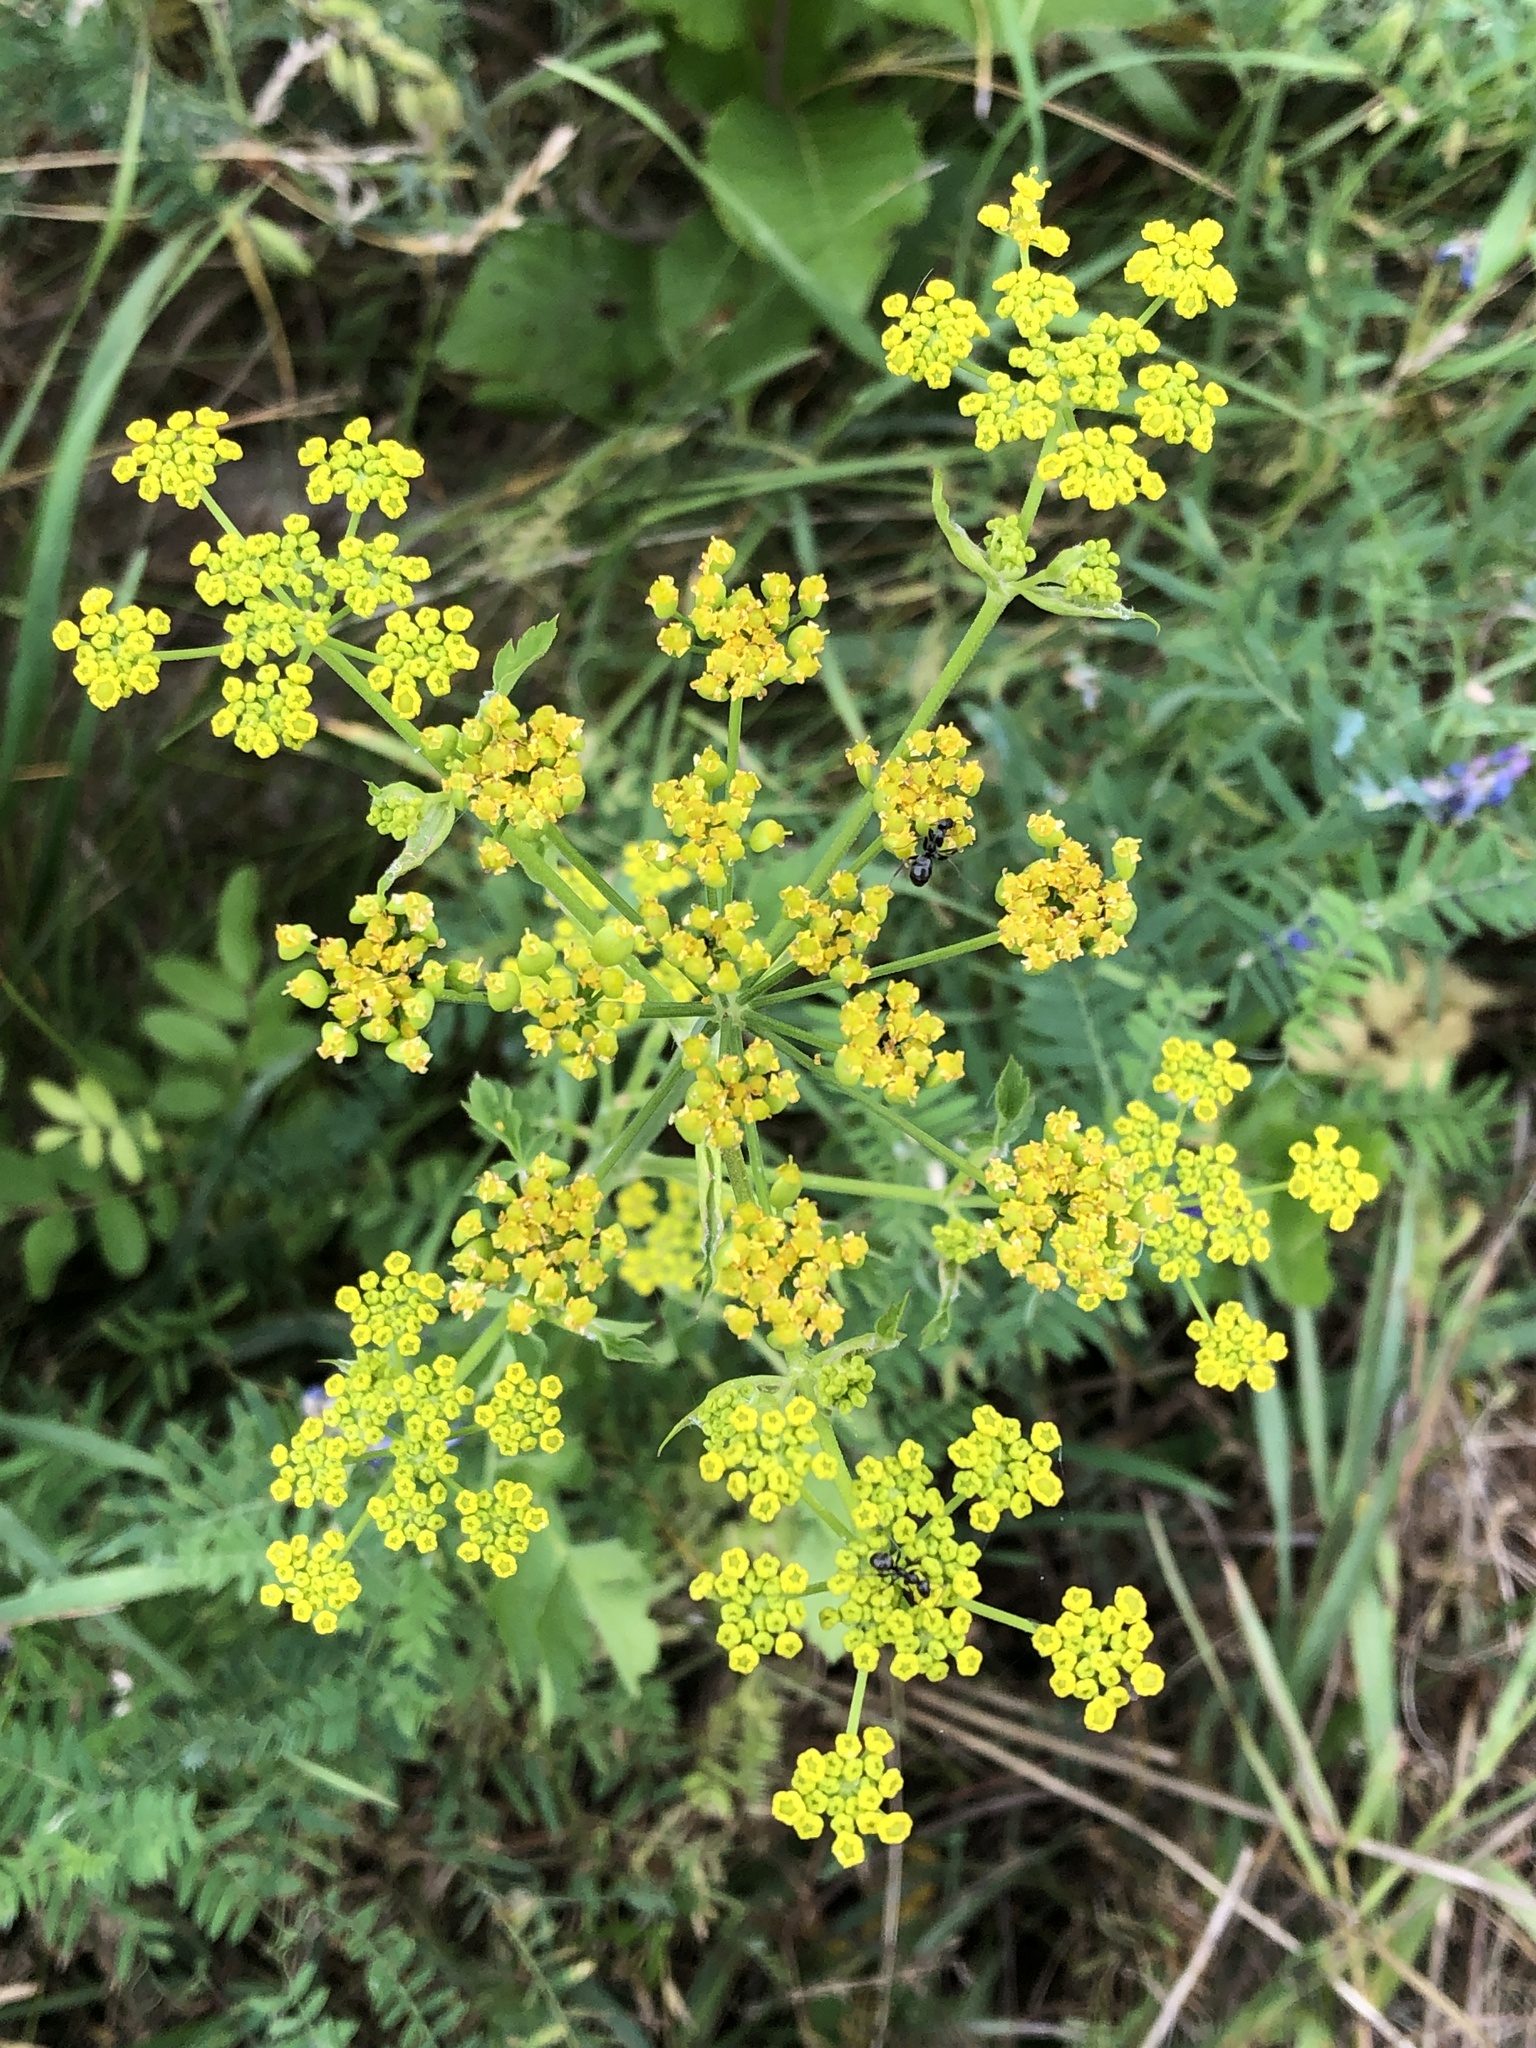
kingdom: Plantae
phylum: Tracheophyta
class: Magnoliopsida
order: Apiales
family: Apiaceae
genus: Pastinaca
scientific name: Pastinaca sativa
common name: Wild parsnip
